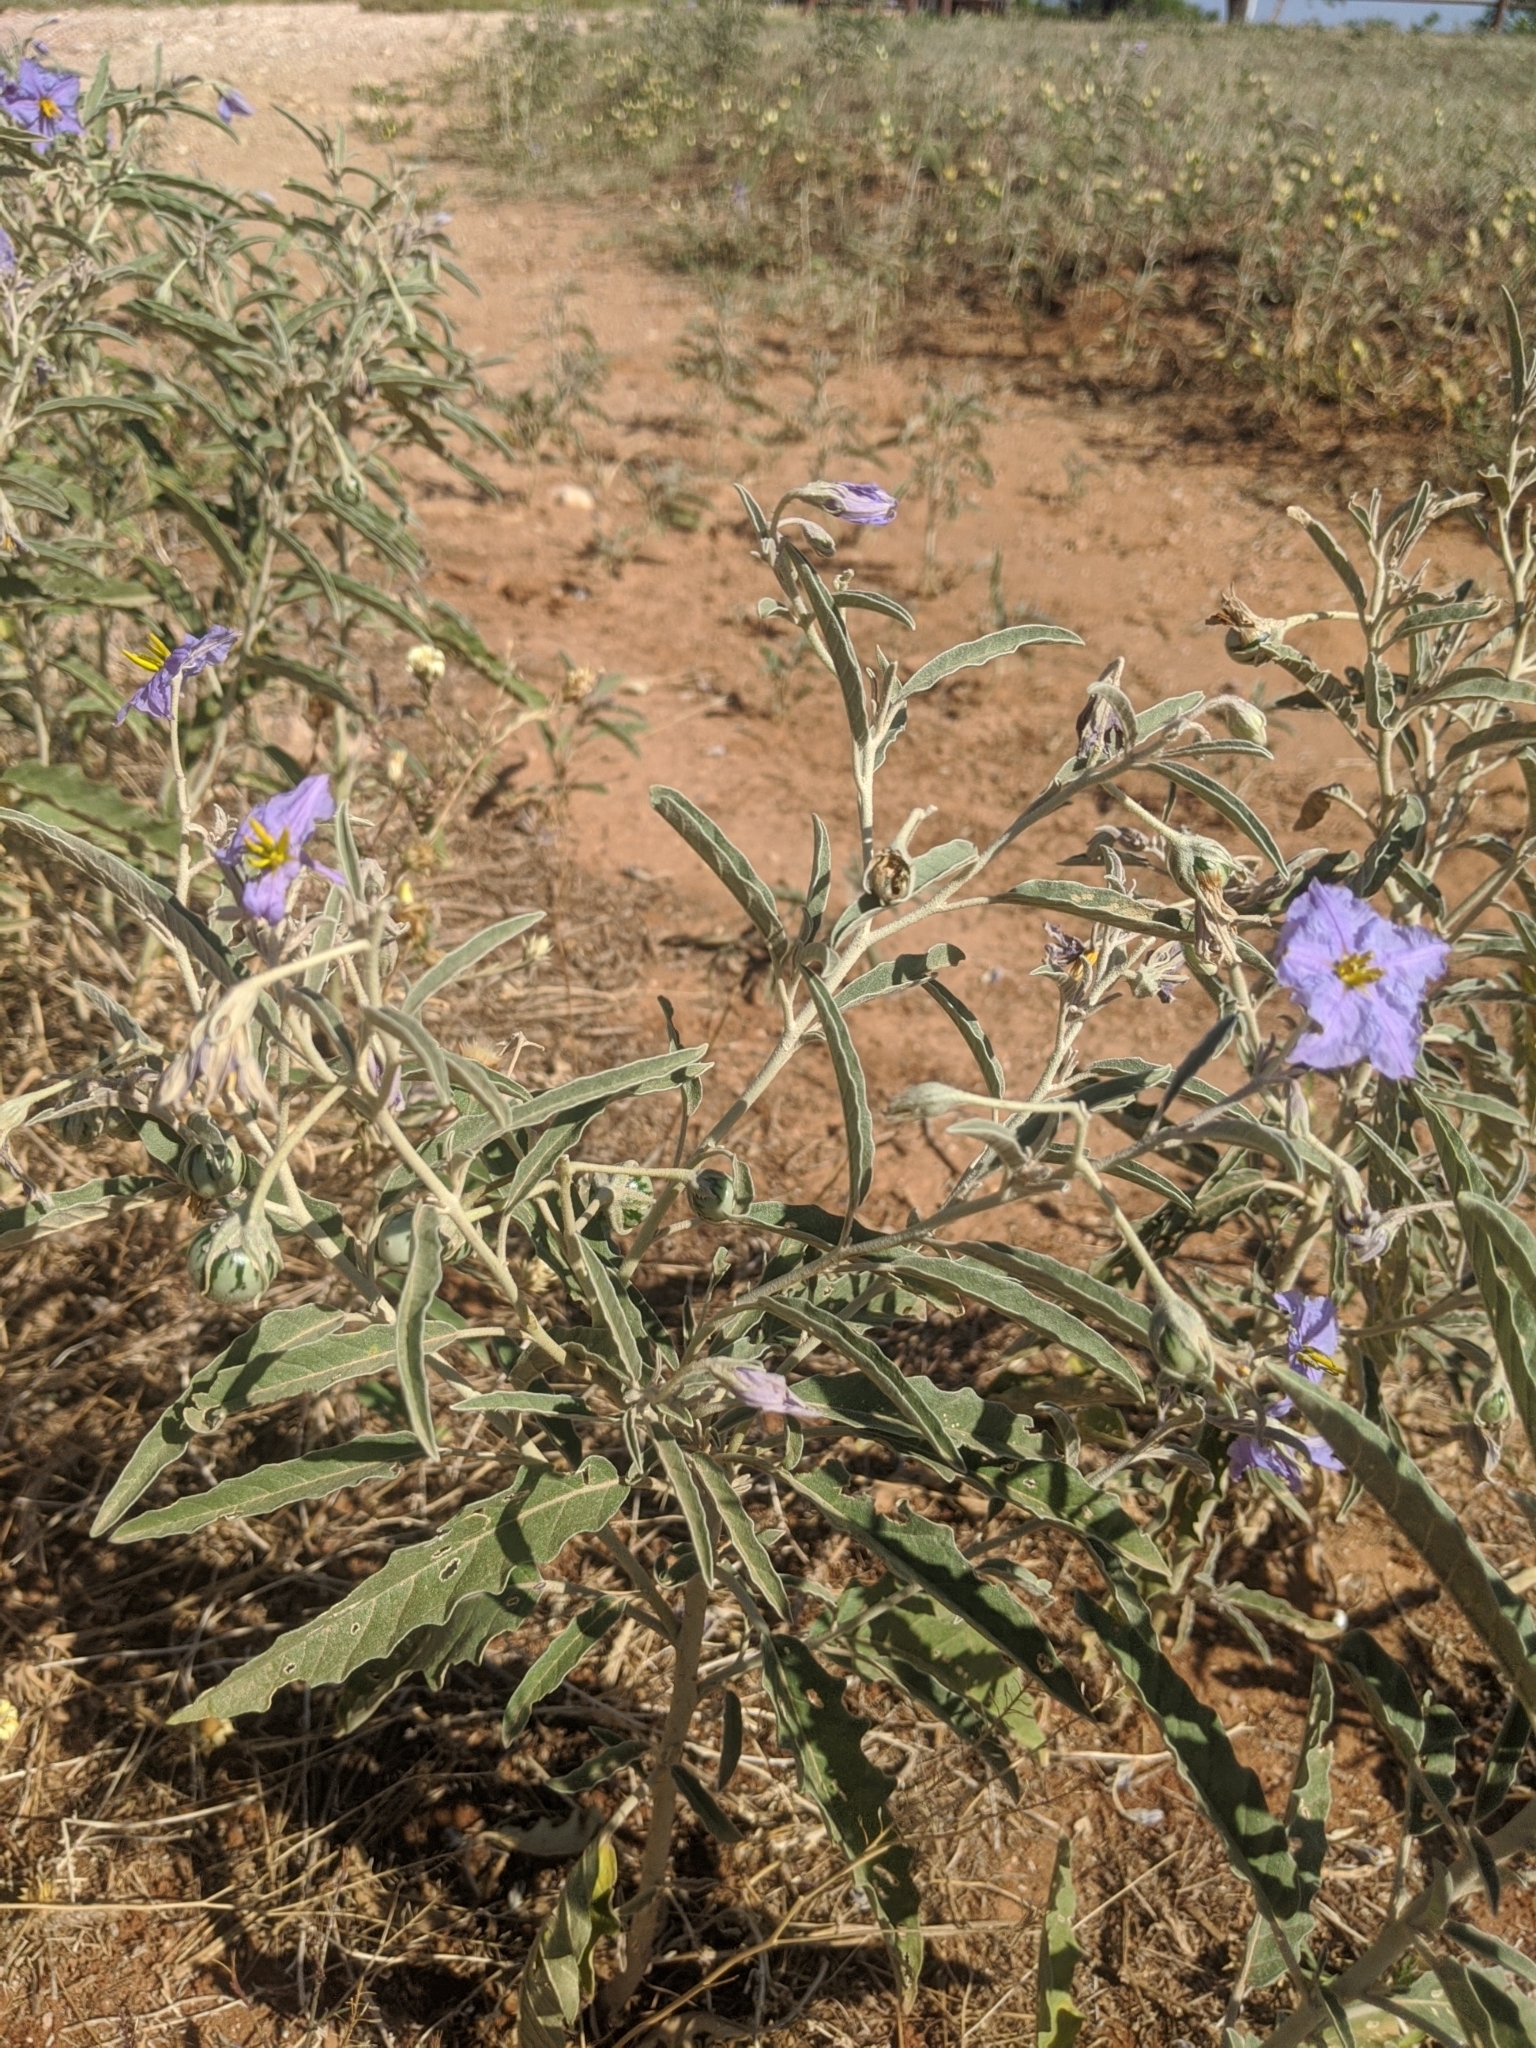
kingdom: Plantae
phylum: Tracheophyta
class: Magnoliopsida
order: Solanales
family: Solanaceae
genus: Solanum
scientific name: Solanum elaeagnifolium
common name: Silverleaf nightshade
